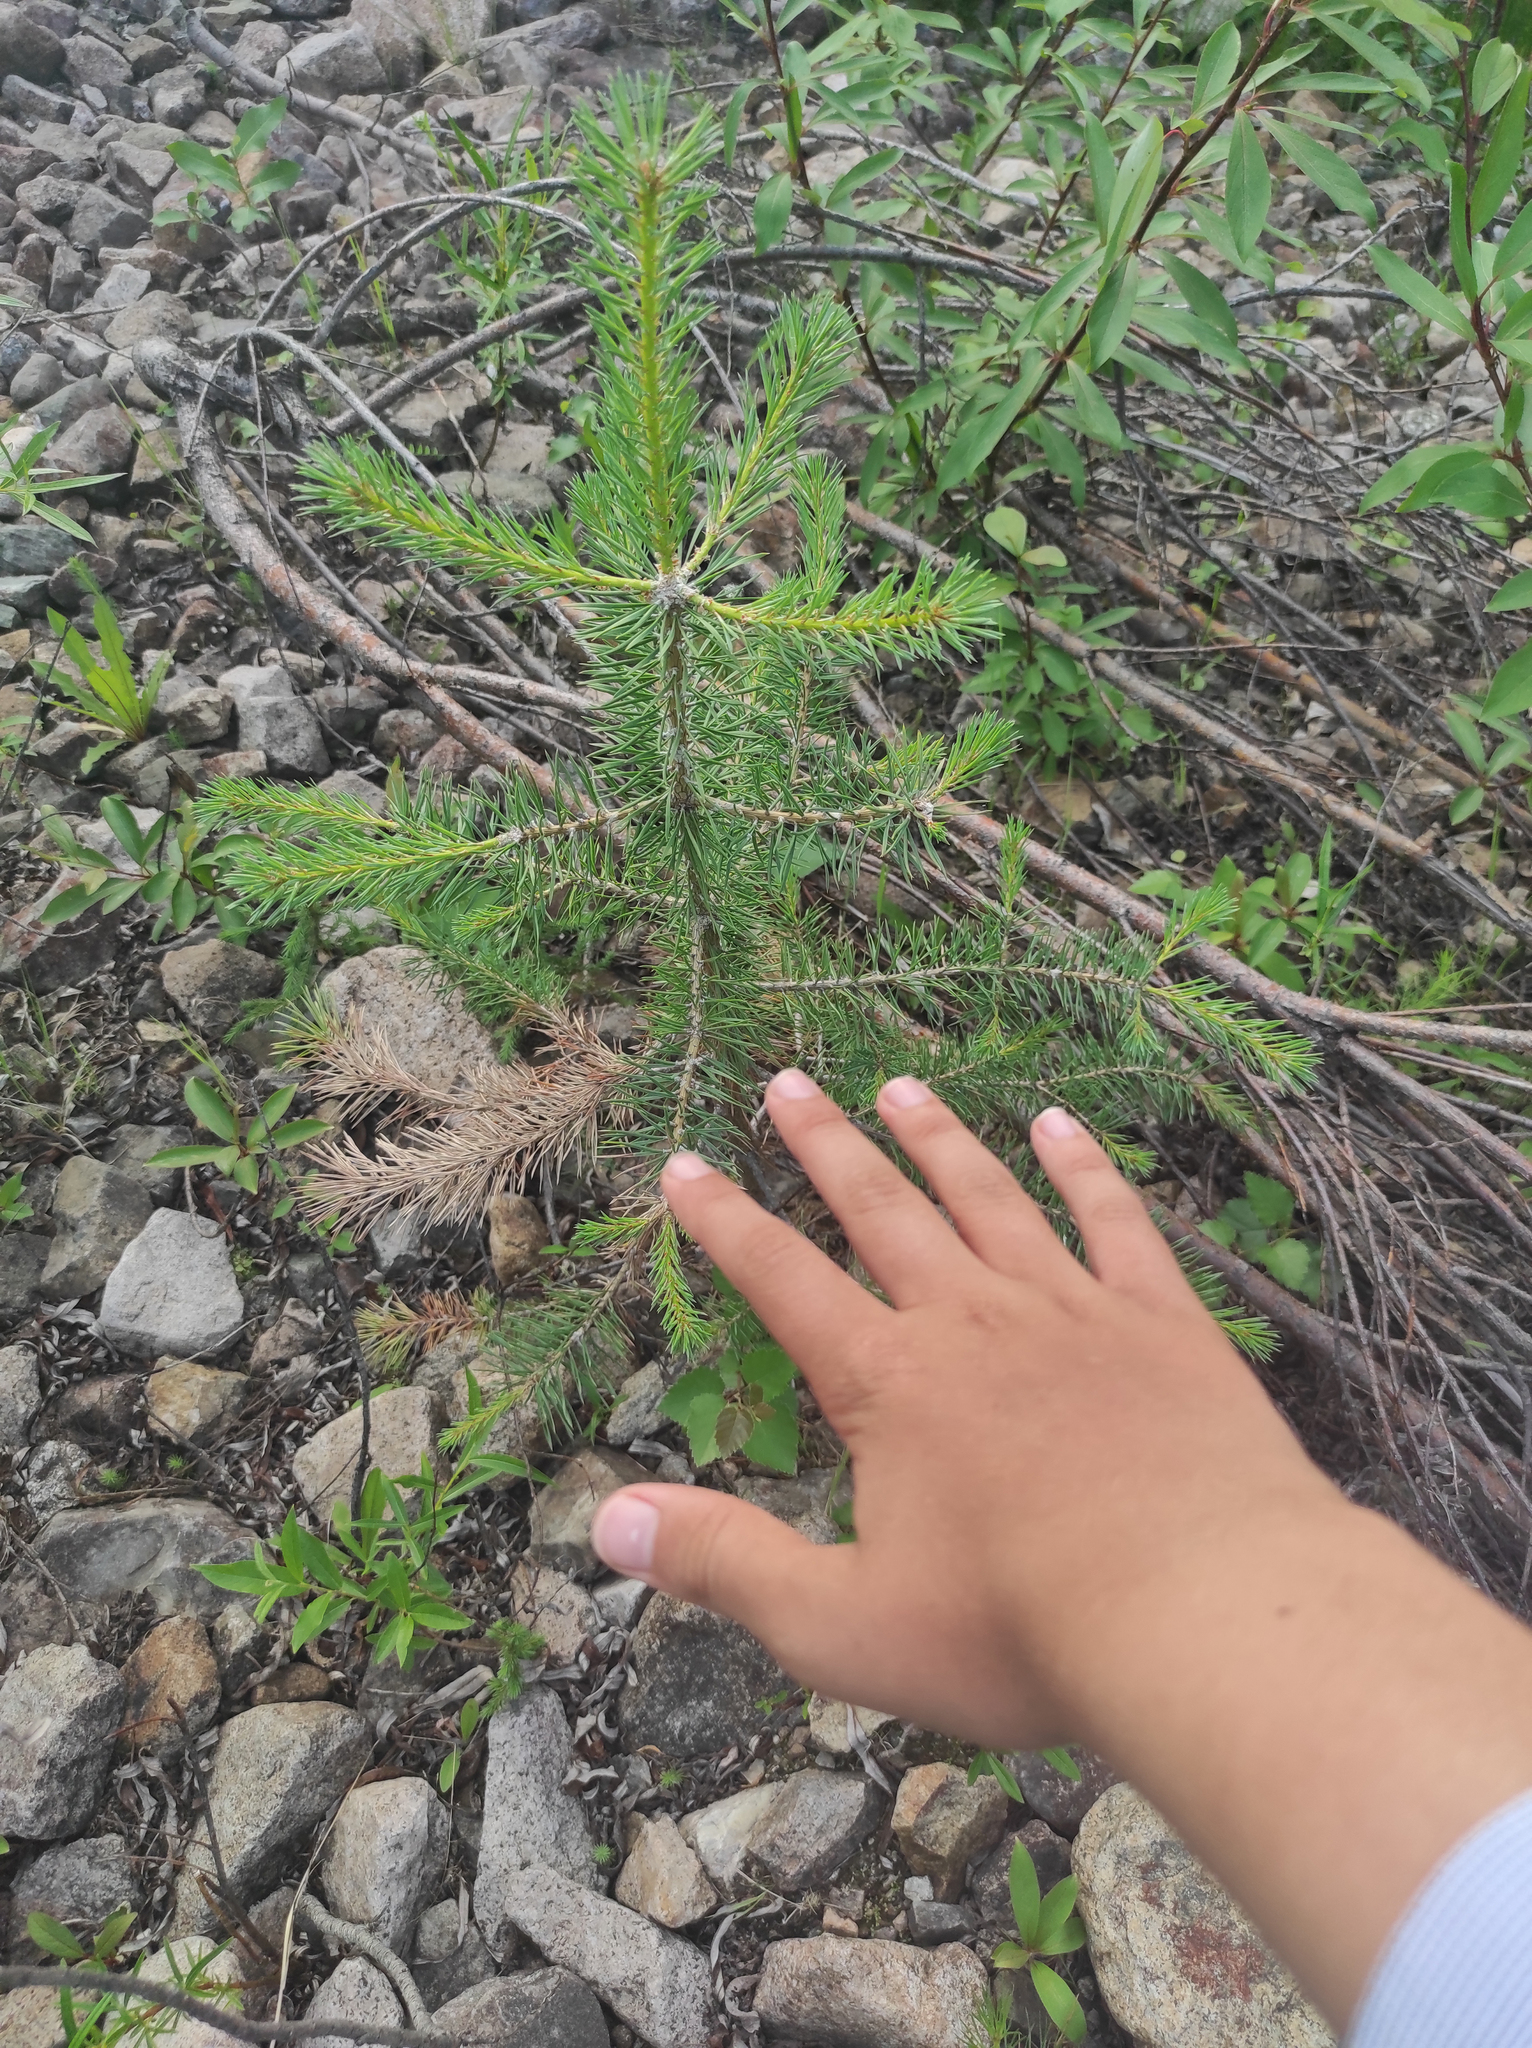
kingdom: Plantae
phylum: Tracheophyta
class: Pinopsida
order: Pinales
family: Pinaceae
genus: Pinus
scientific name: Pinus sylvestris
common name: Scots pine
